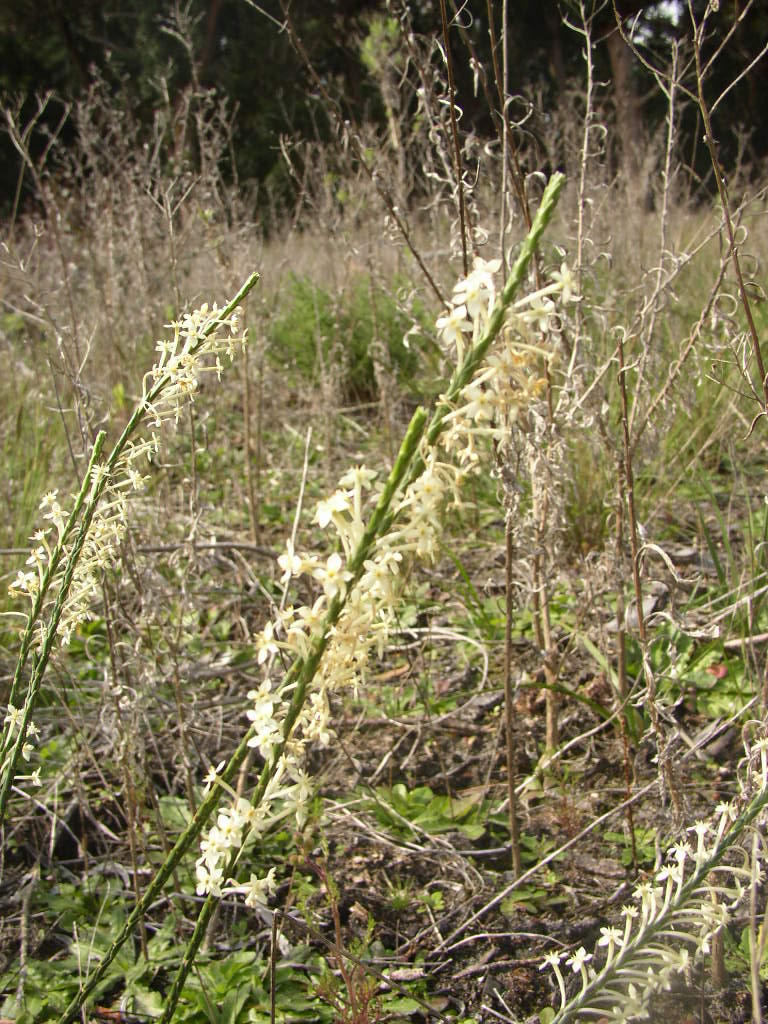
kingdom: Plantae
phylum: Tracheophyta
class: Magnoliopsida
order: Malvales
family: Thymelaeaceae
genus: Struthiola
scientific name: Struthiola myrsinites
